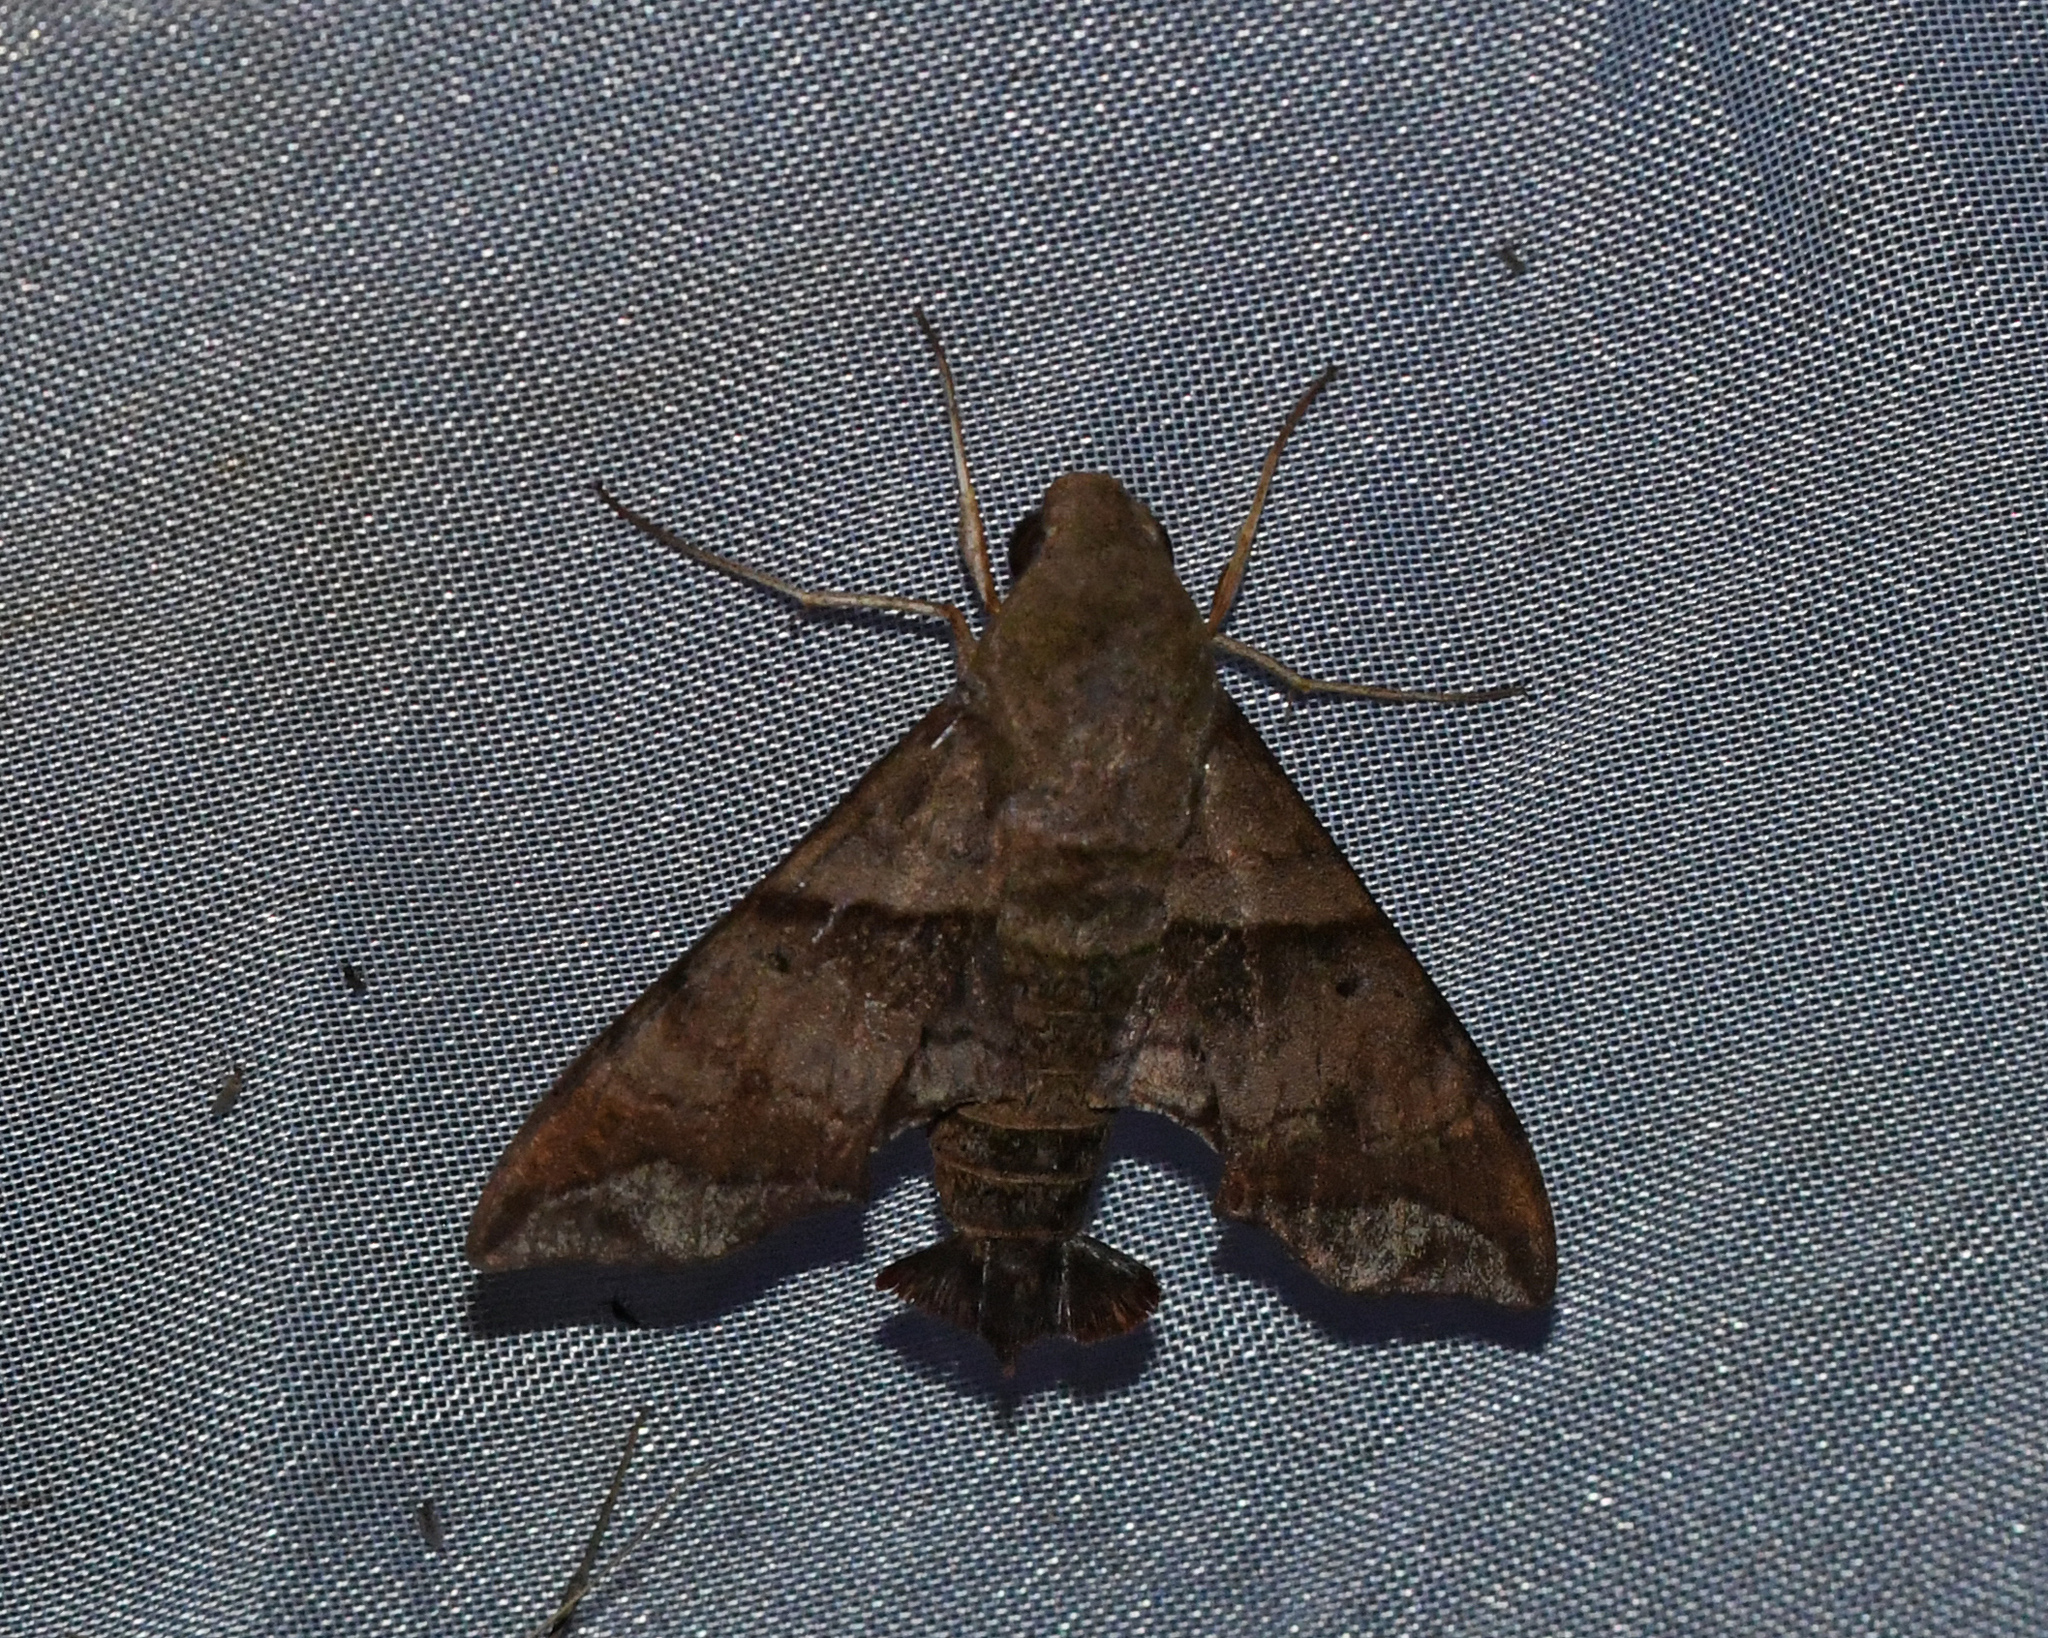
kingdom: Animalia
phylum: Arthropoda
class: Insecta
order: Lepidoptera
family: Sphingidae
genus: Perigonia
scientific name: Perigonia lusca
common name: Half-blind sphinx
